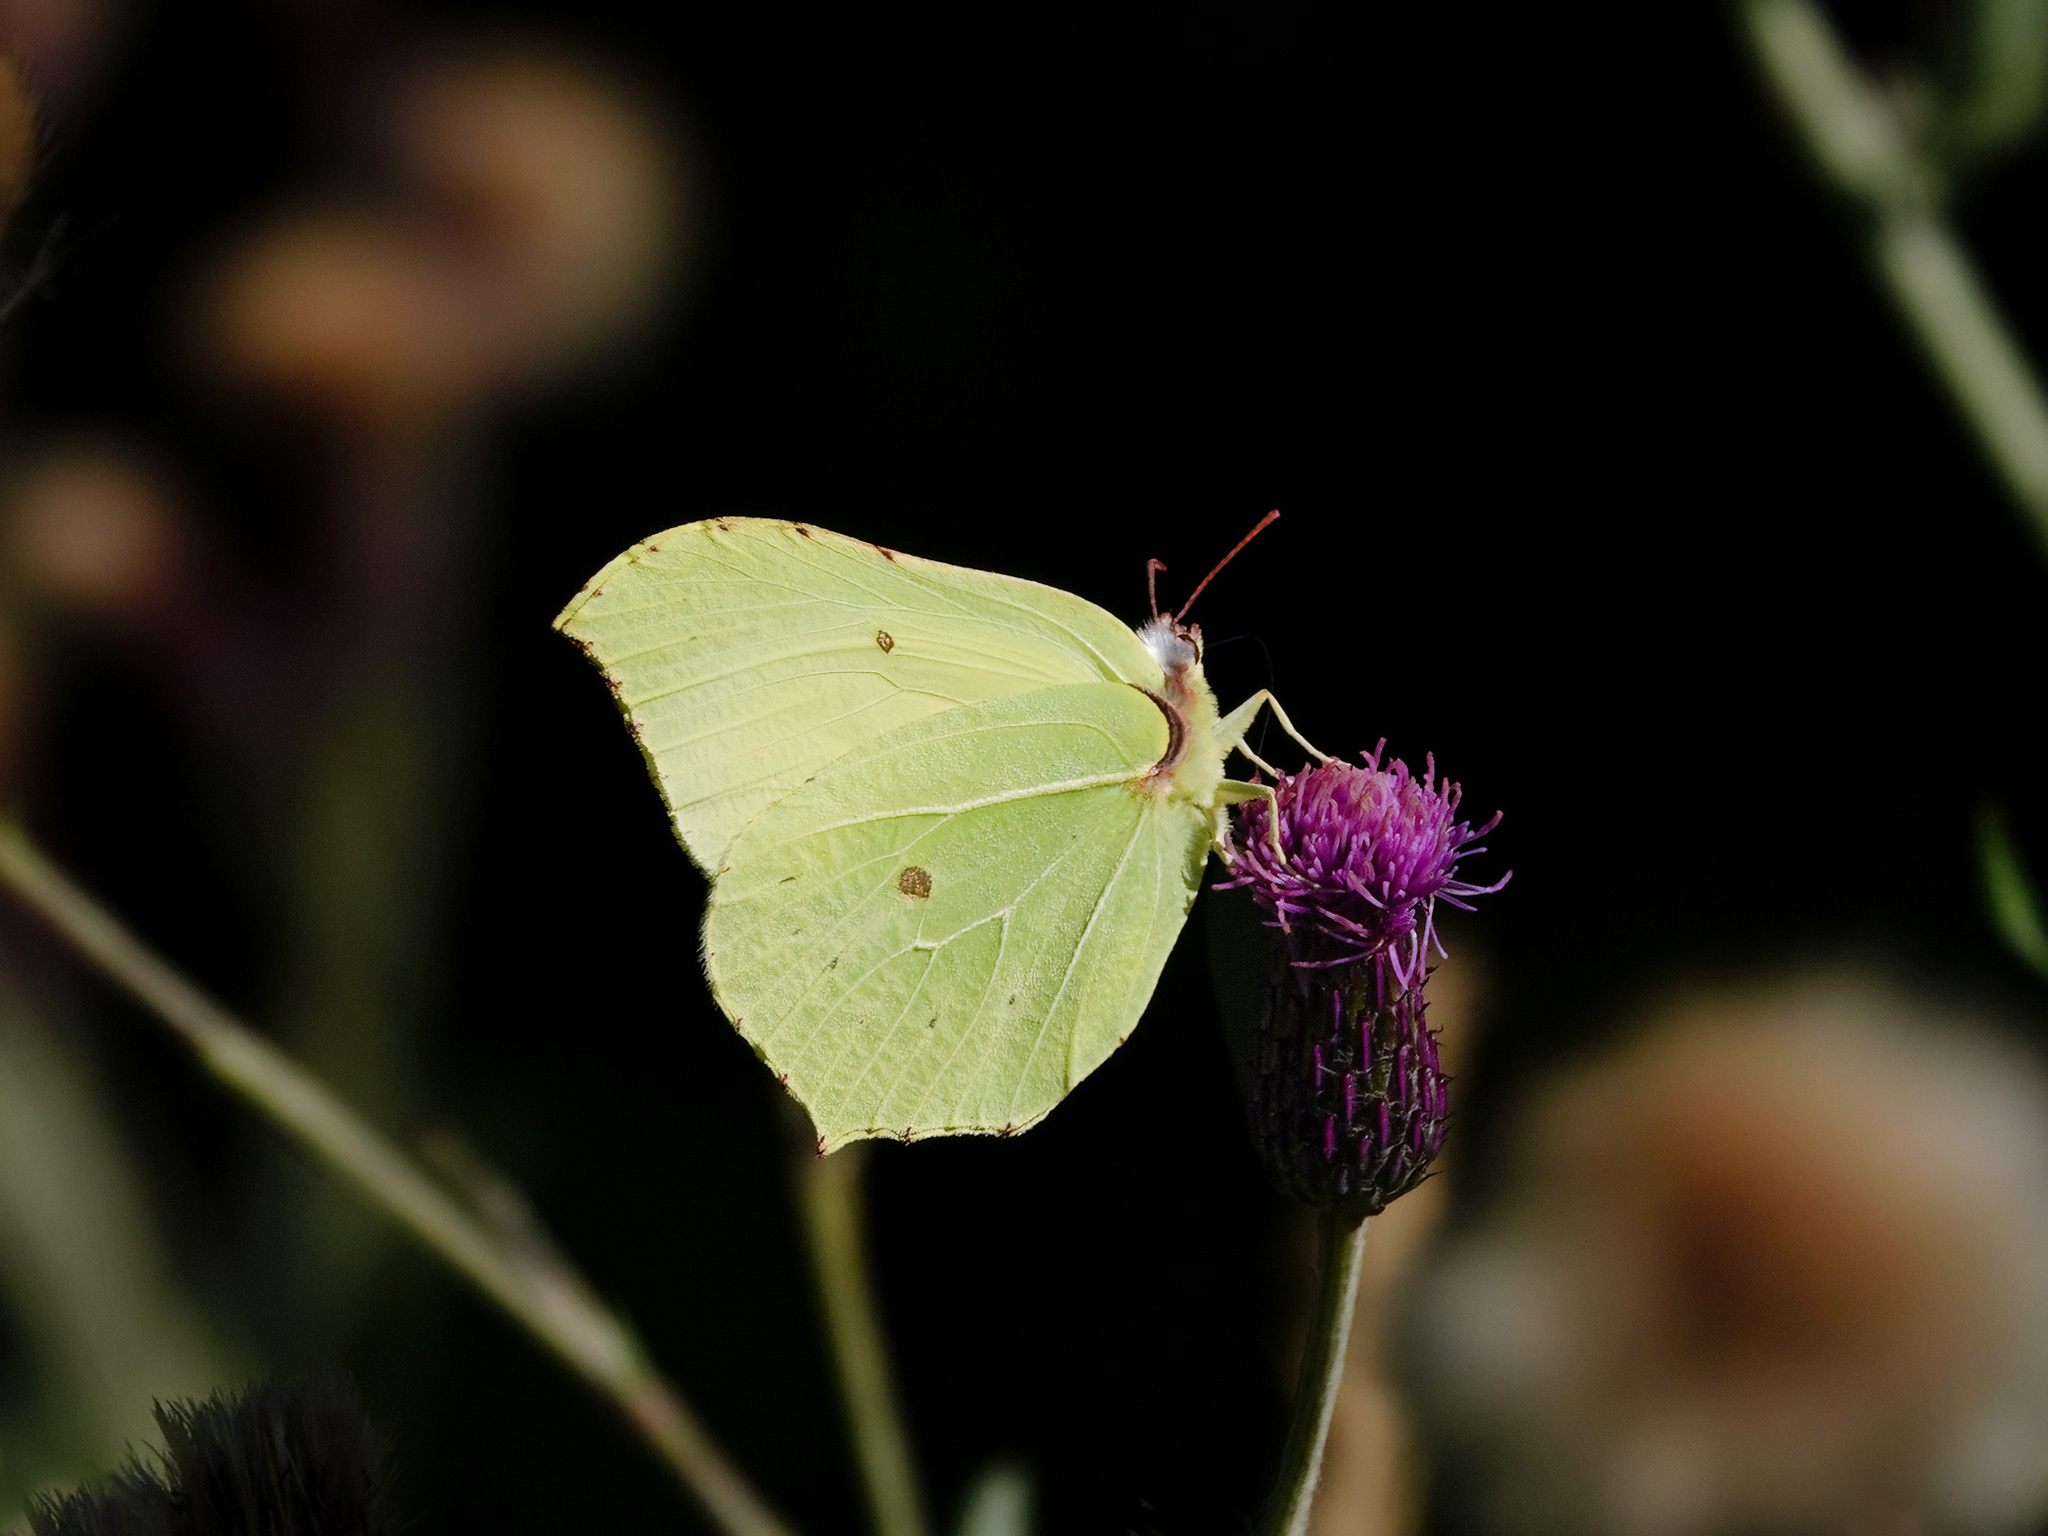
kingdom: Animalia
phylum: Arthropoda
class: Insecta
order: Lepidoptera
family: Pieridae
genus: Gonepteryx
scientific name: Gonepteryx rhamni
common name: Brimstone
